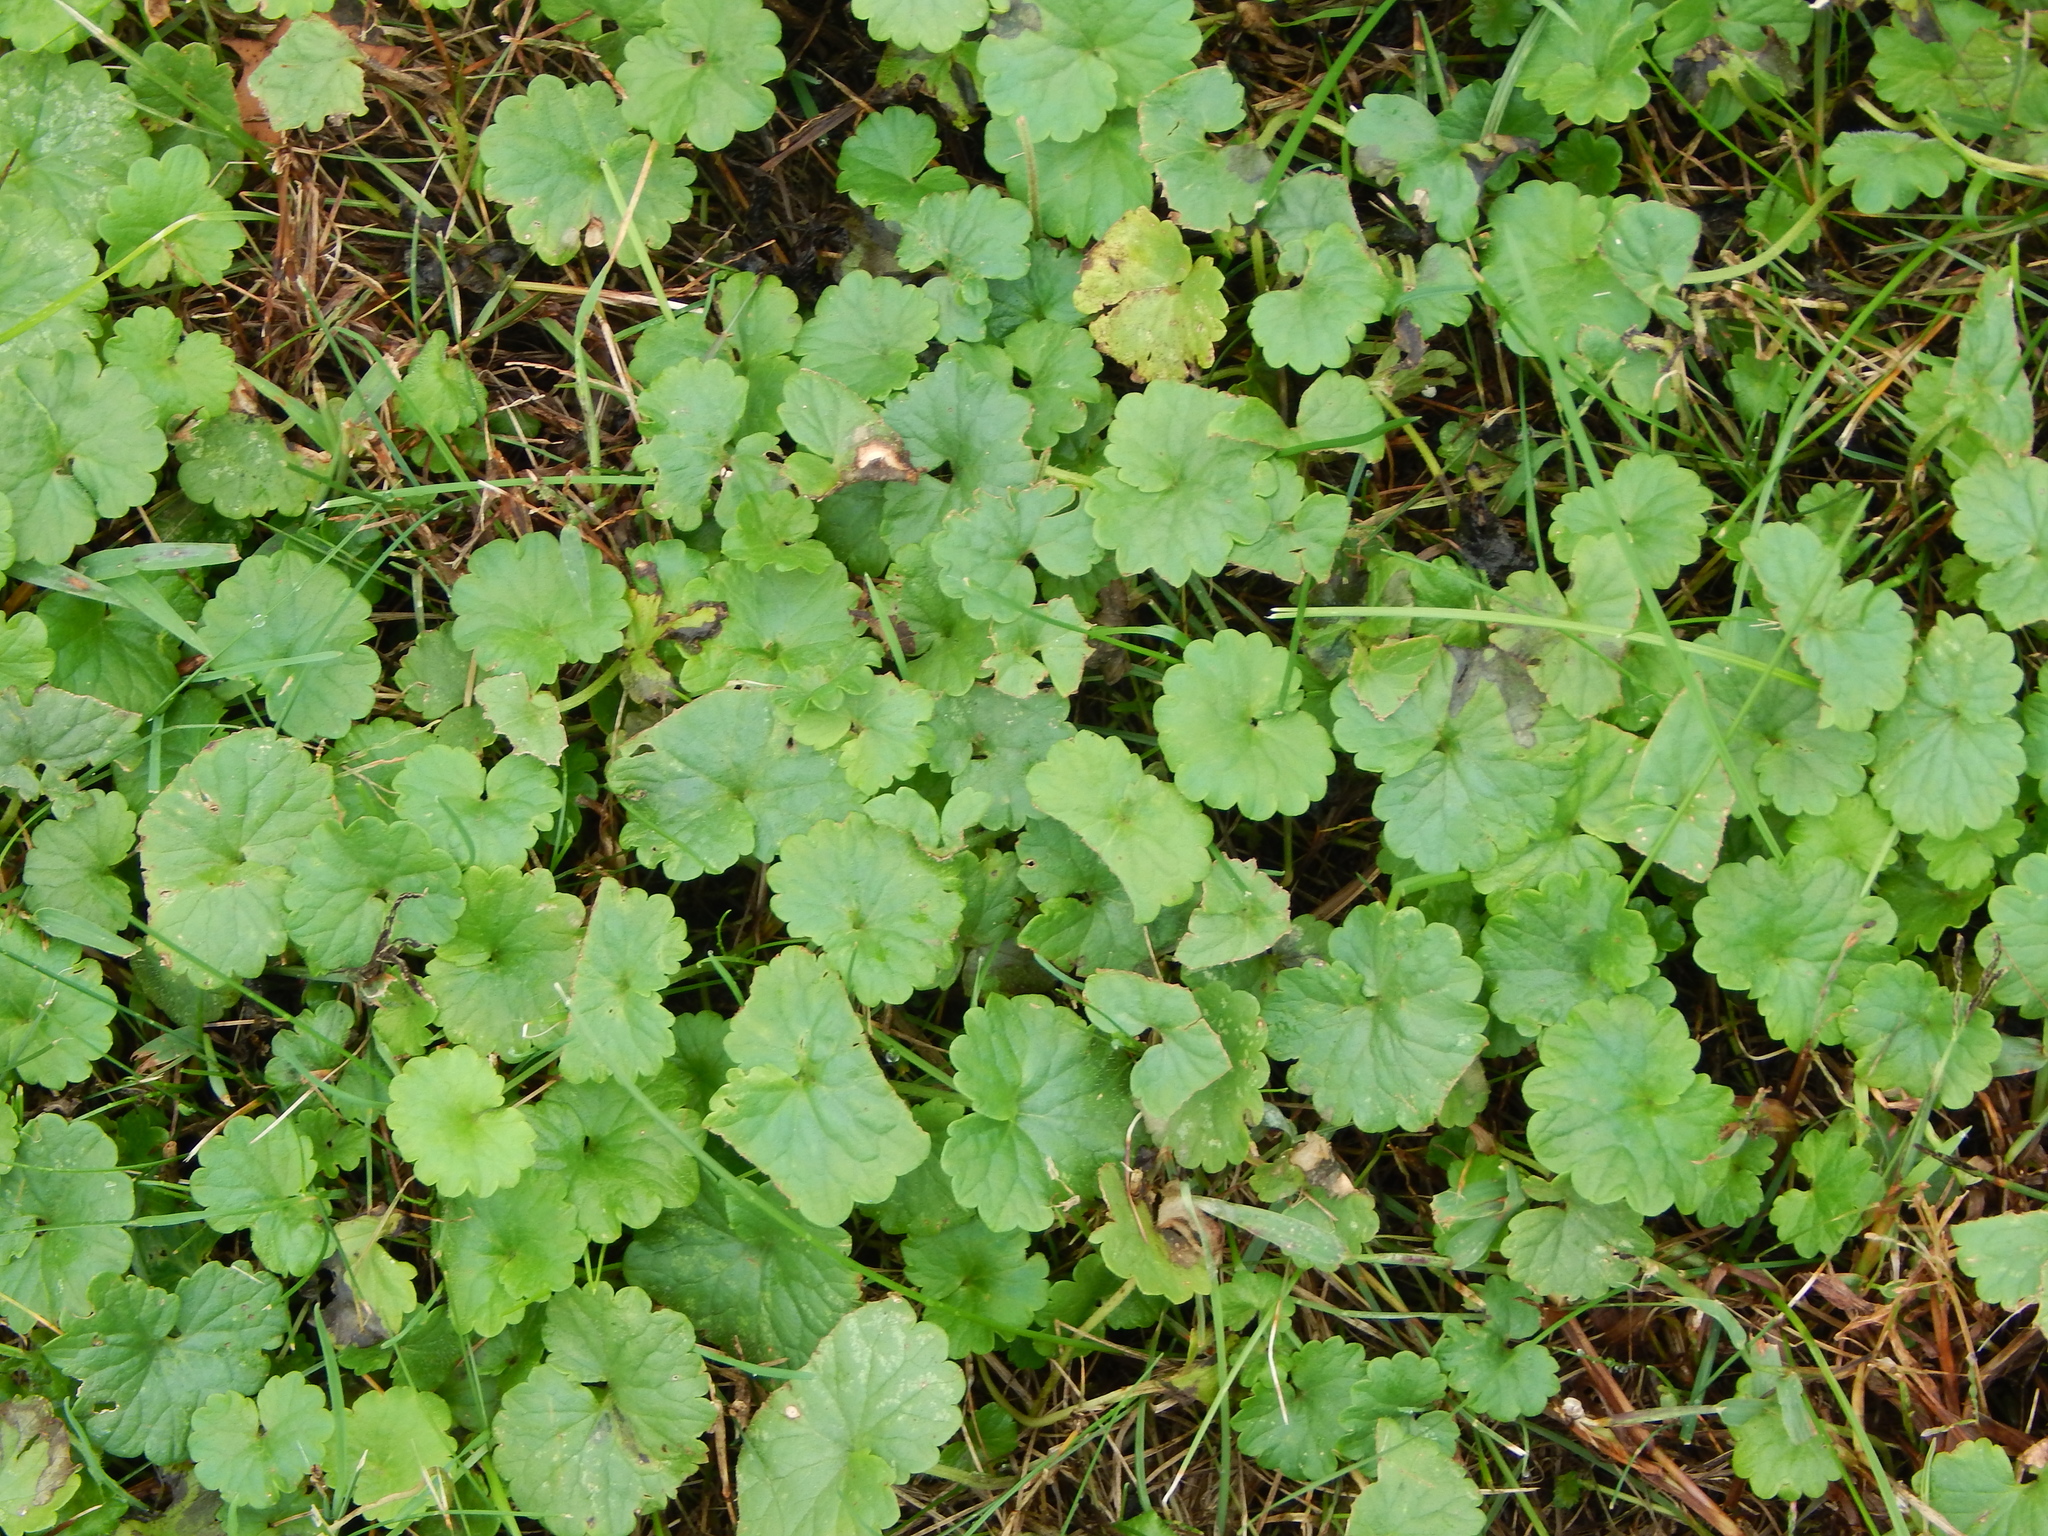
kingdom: Plantae
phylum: Tracheophyta
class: Magnoliopsida
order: Lamiales
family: Lamiaceae
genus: Glechoma
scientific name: Glechoma hederacea
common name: Ground ivy
